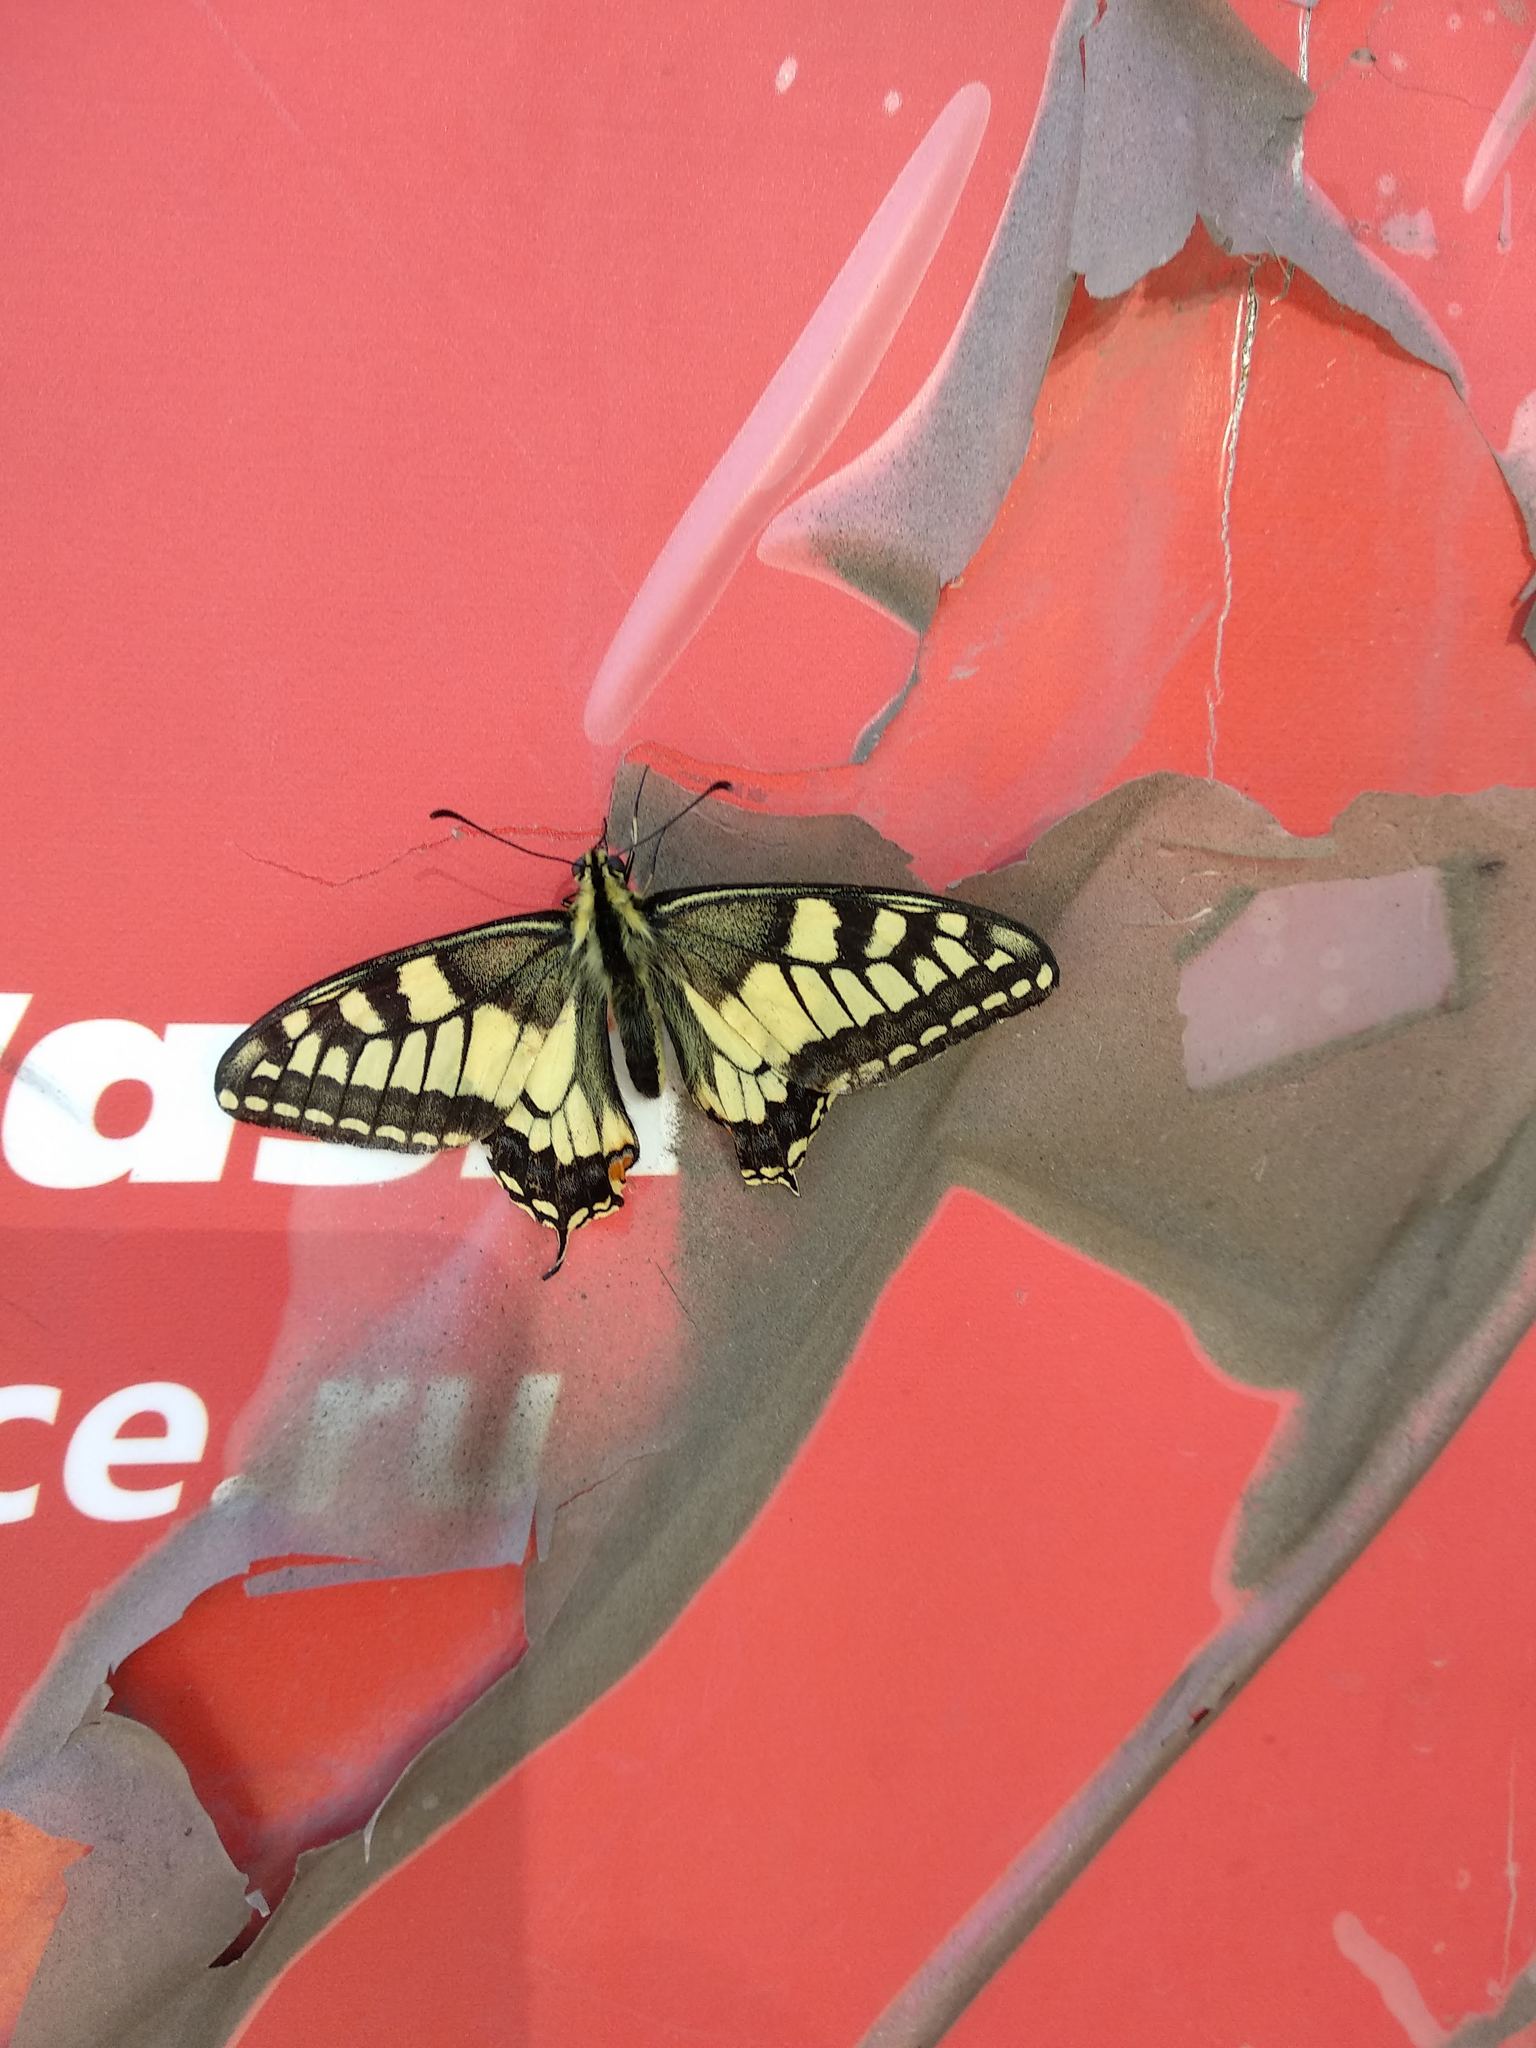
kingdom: Animalia
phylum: Arthropoda
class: Insecta
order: Lepidoptera
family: Papilionidae
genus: Papilio
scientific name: Papilio machaon
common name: Swallowtail
